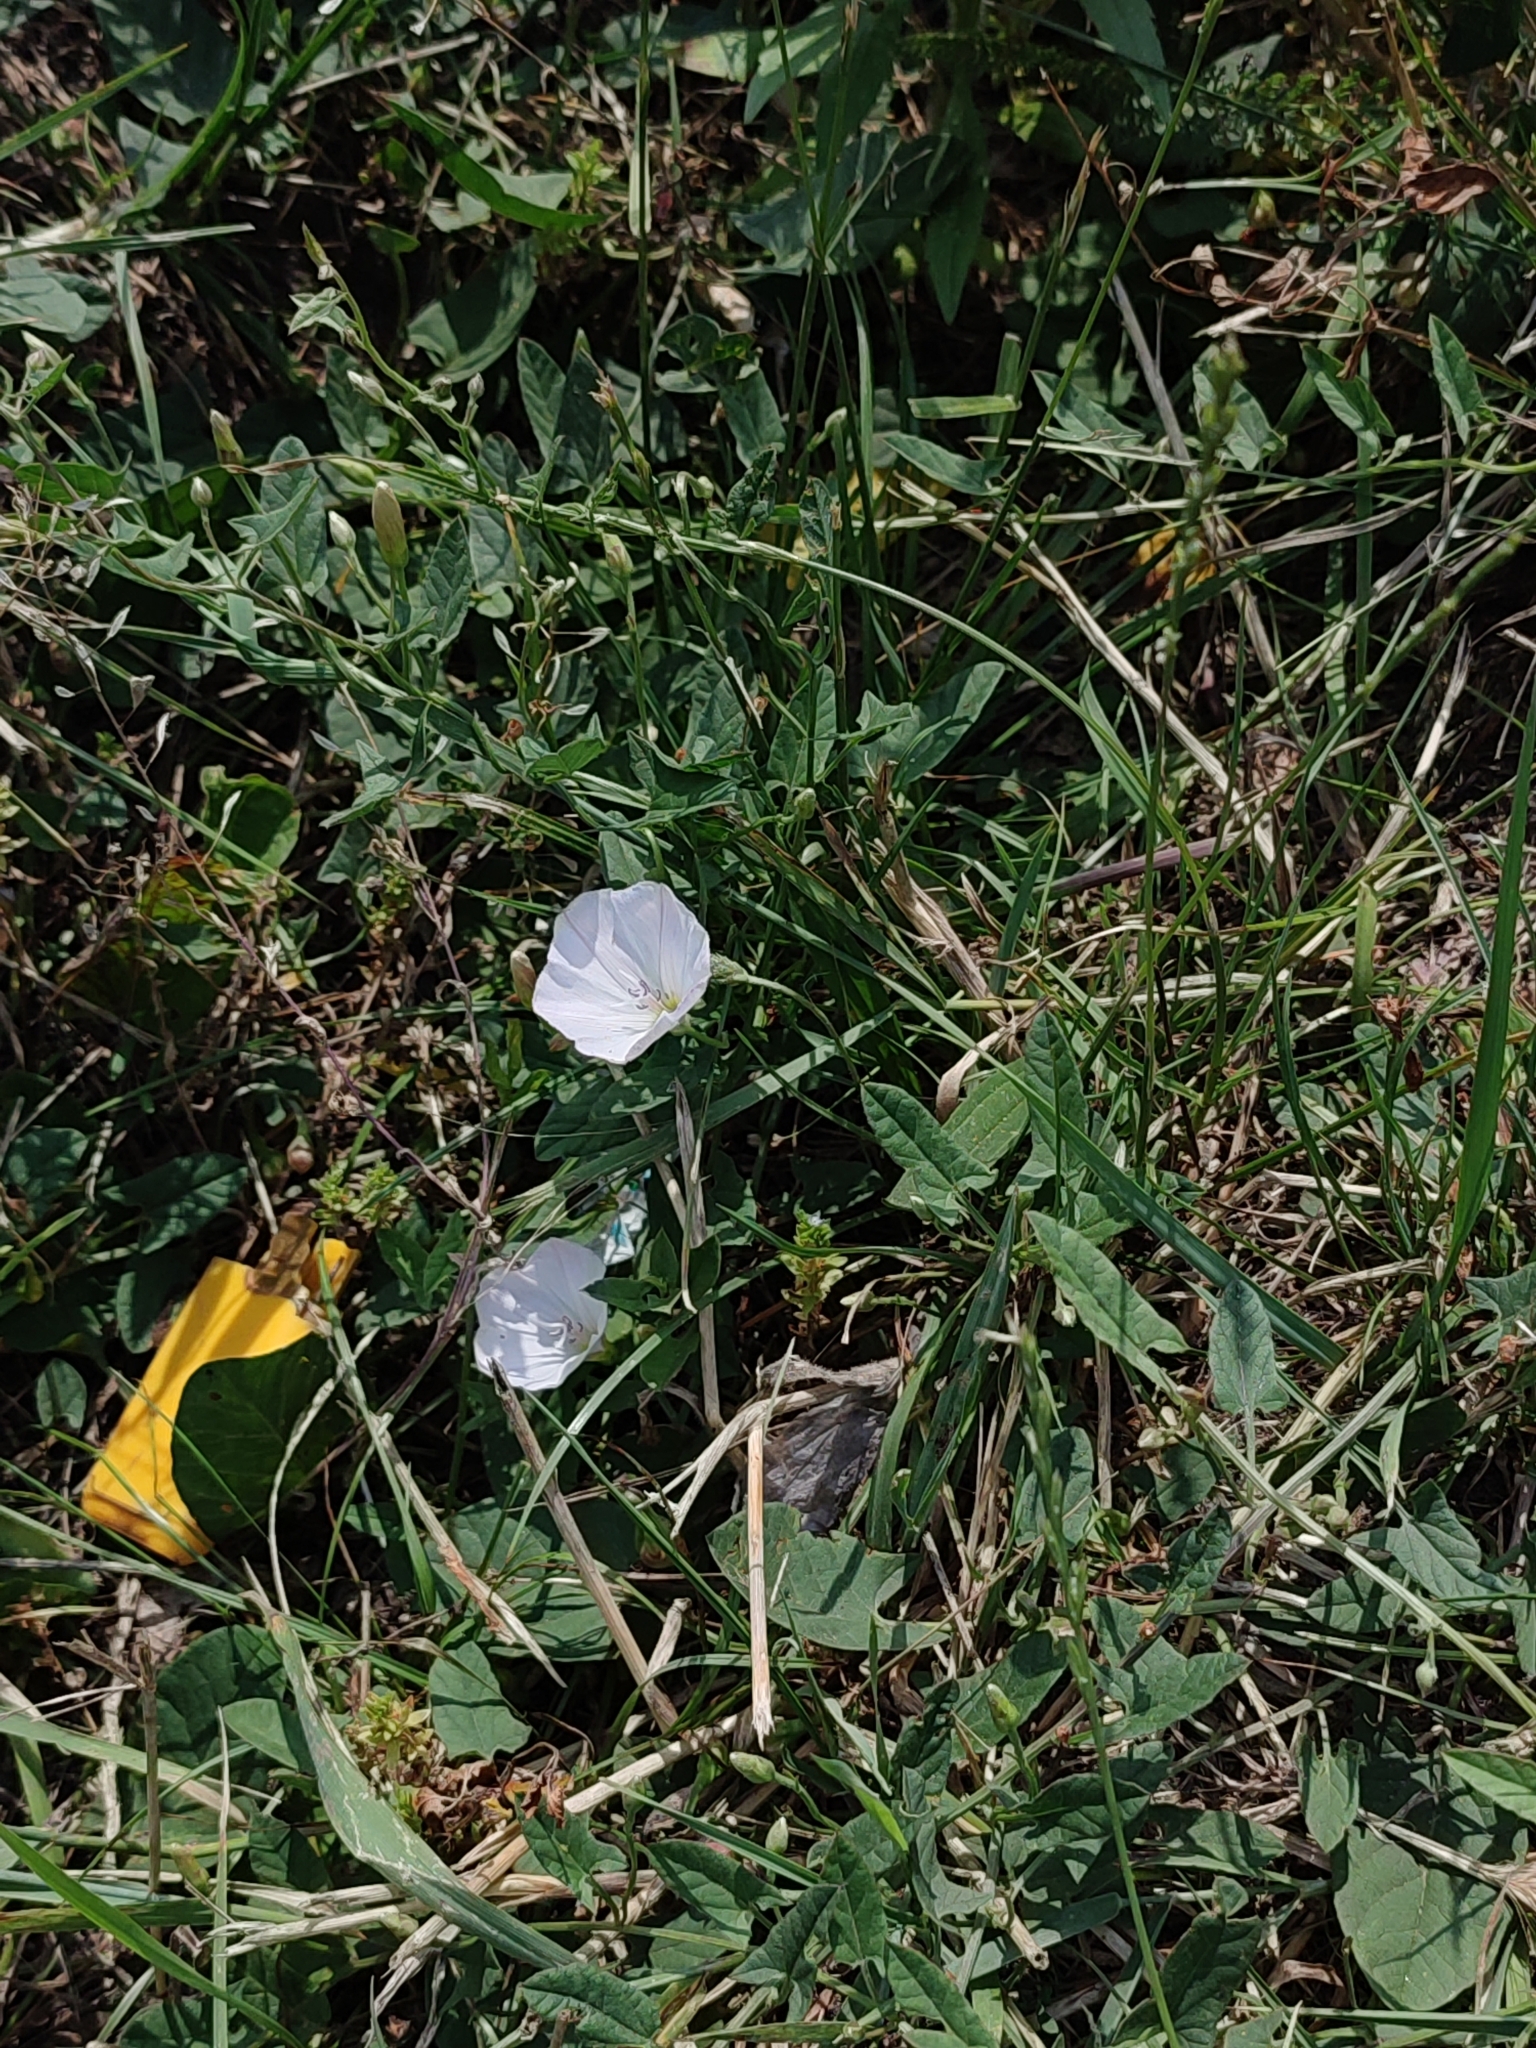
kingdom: Plantae
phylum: Tracheophyta
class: Magnoliopsida
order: Solanales
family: Convolvulaceae
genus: Convolvulus
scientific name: Convolvulus arvensis
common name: Field bindweed
